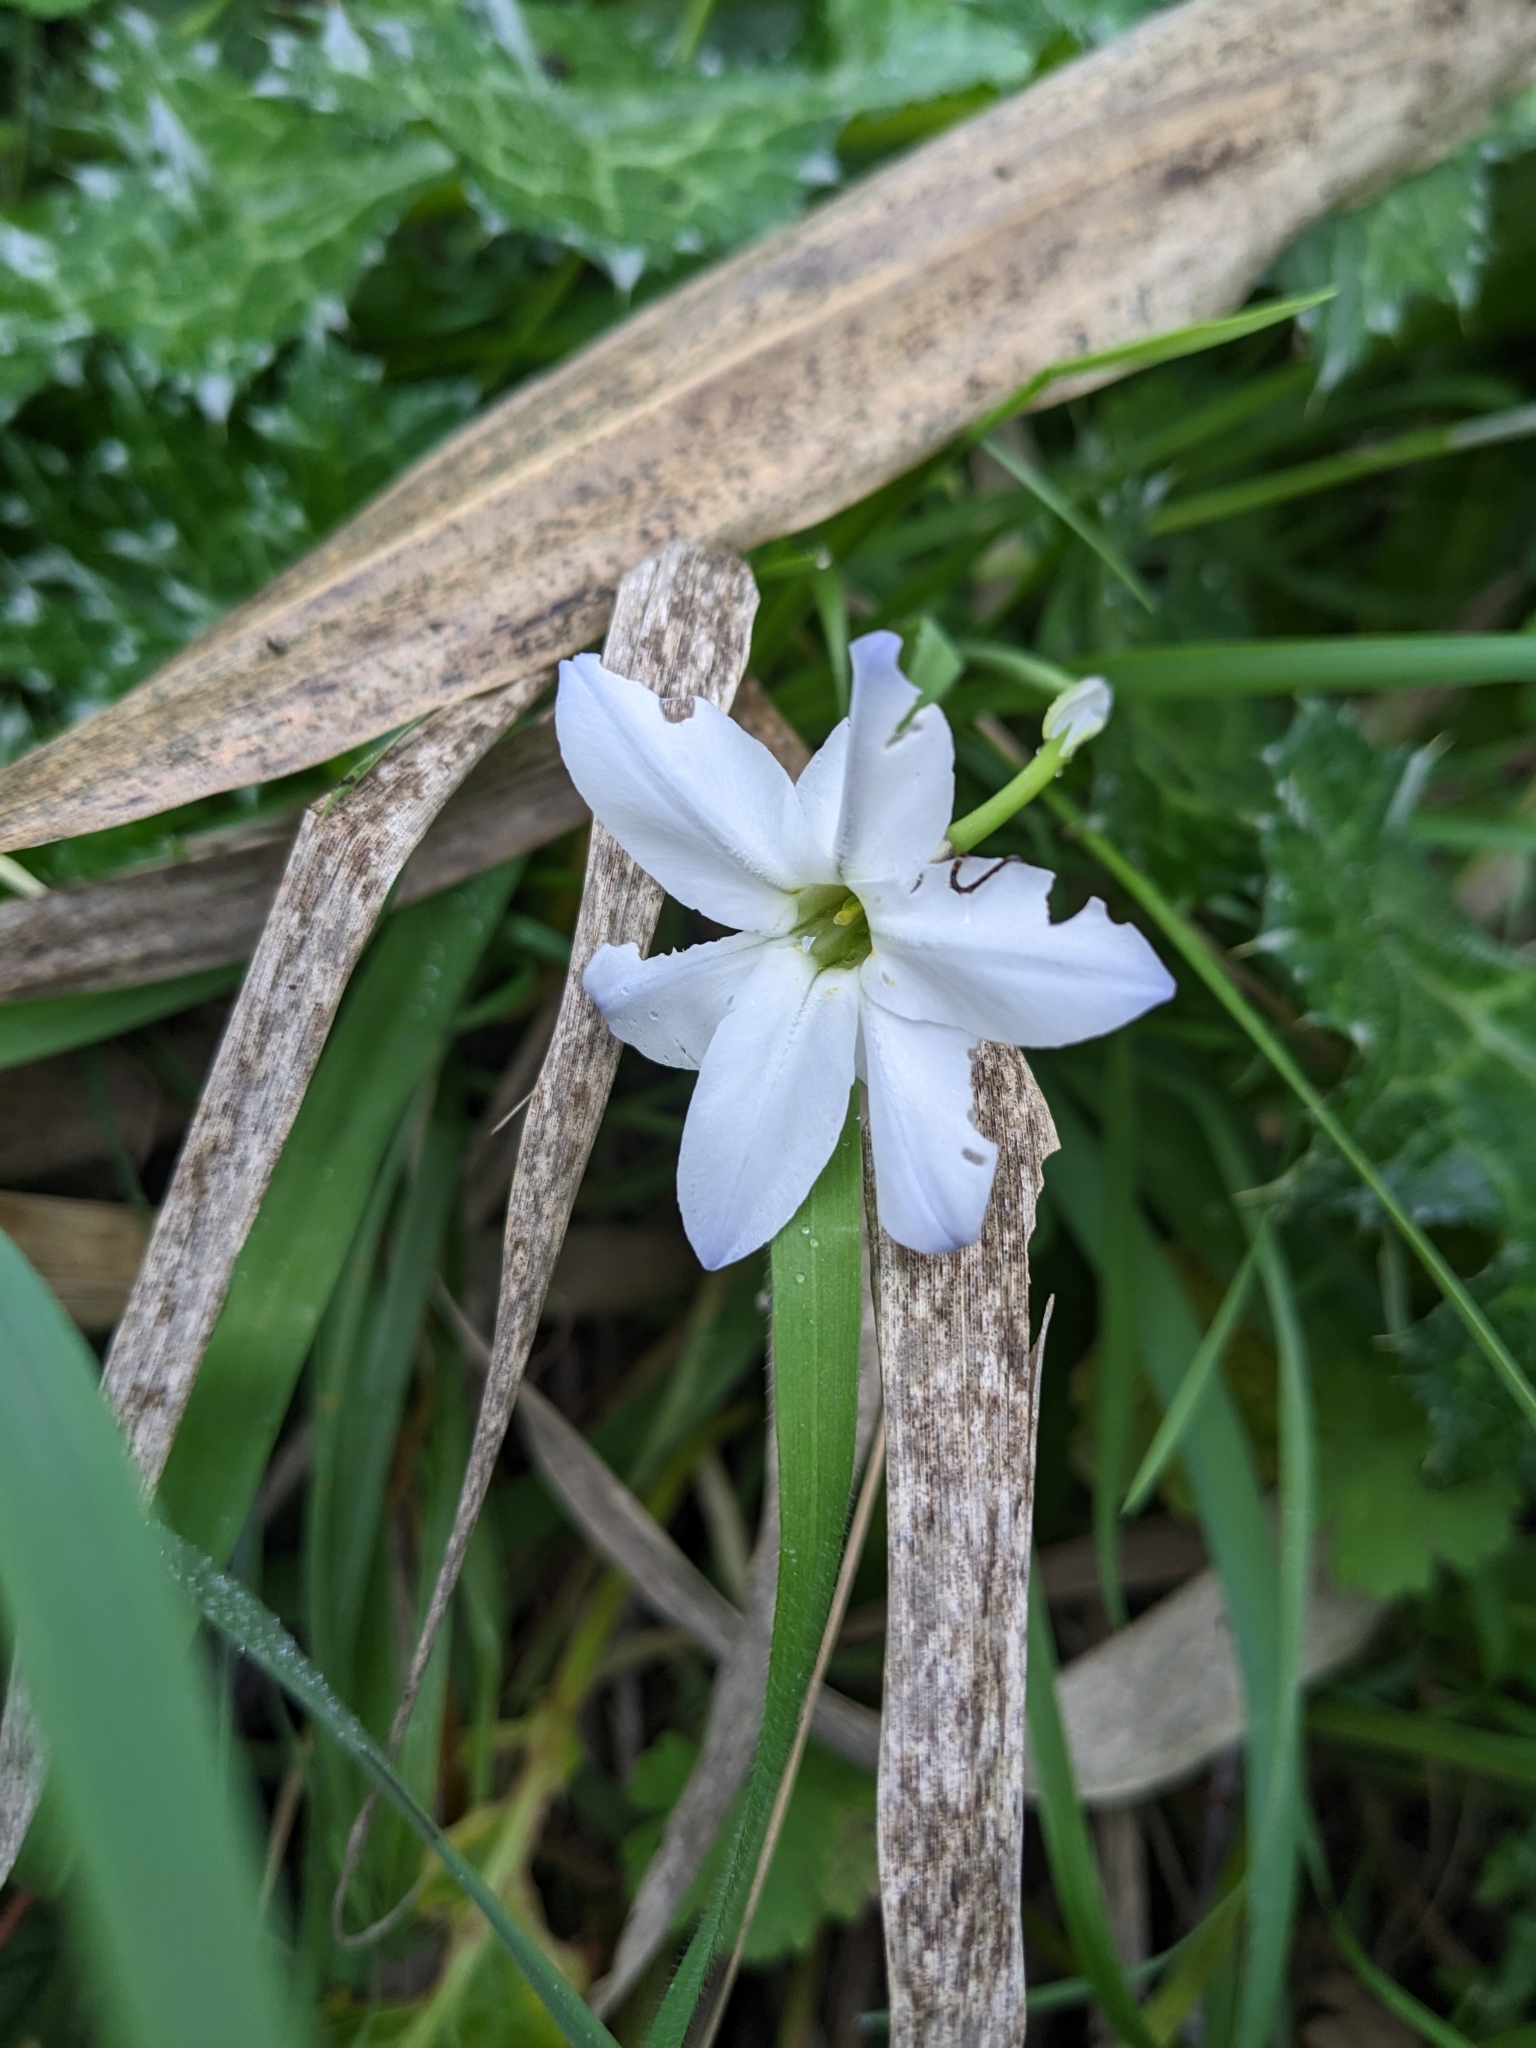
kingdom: Plantae
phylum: Tracheophyta
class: Liliopsida
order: Asparagales
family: Amaryllidaceae
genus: Ipheion
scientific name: Ipheion uniflorum
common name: Spring starflower
